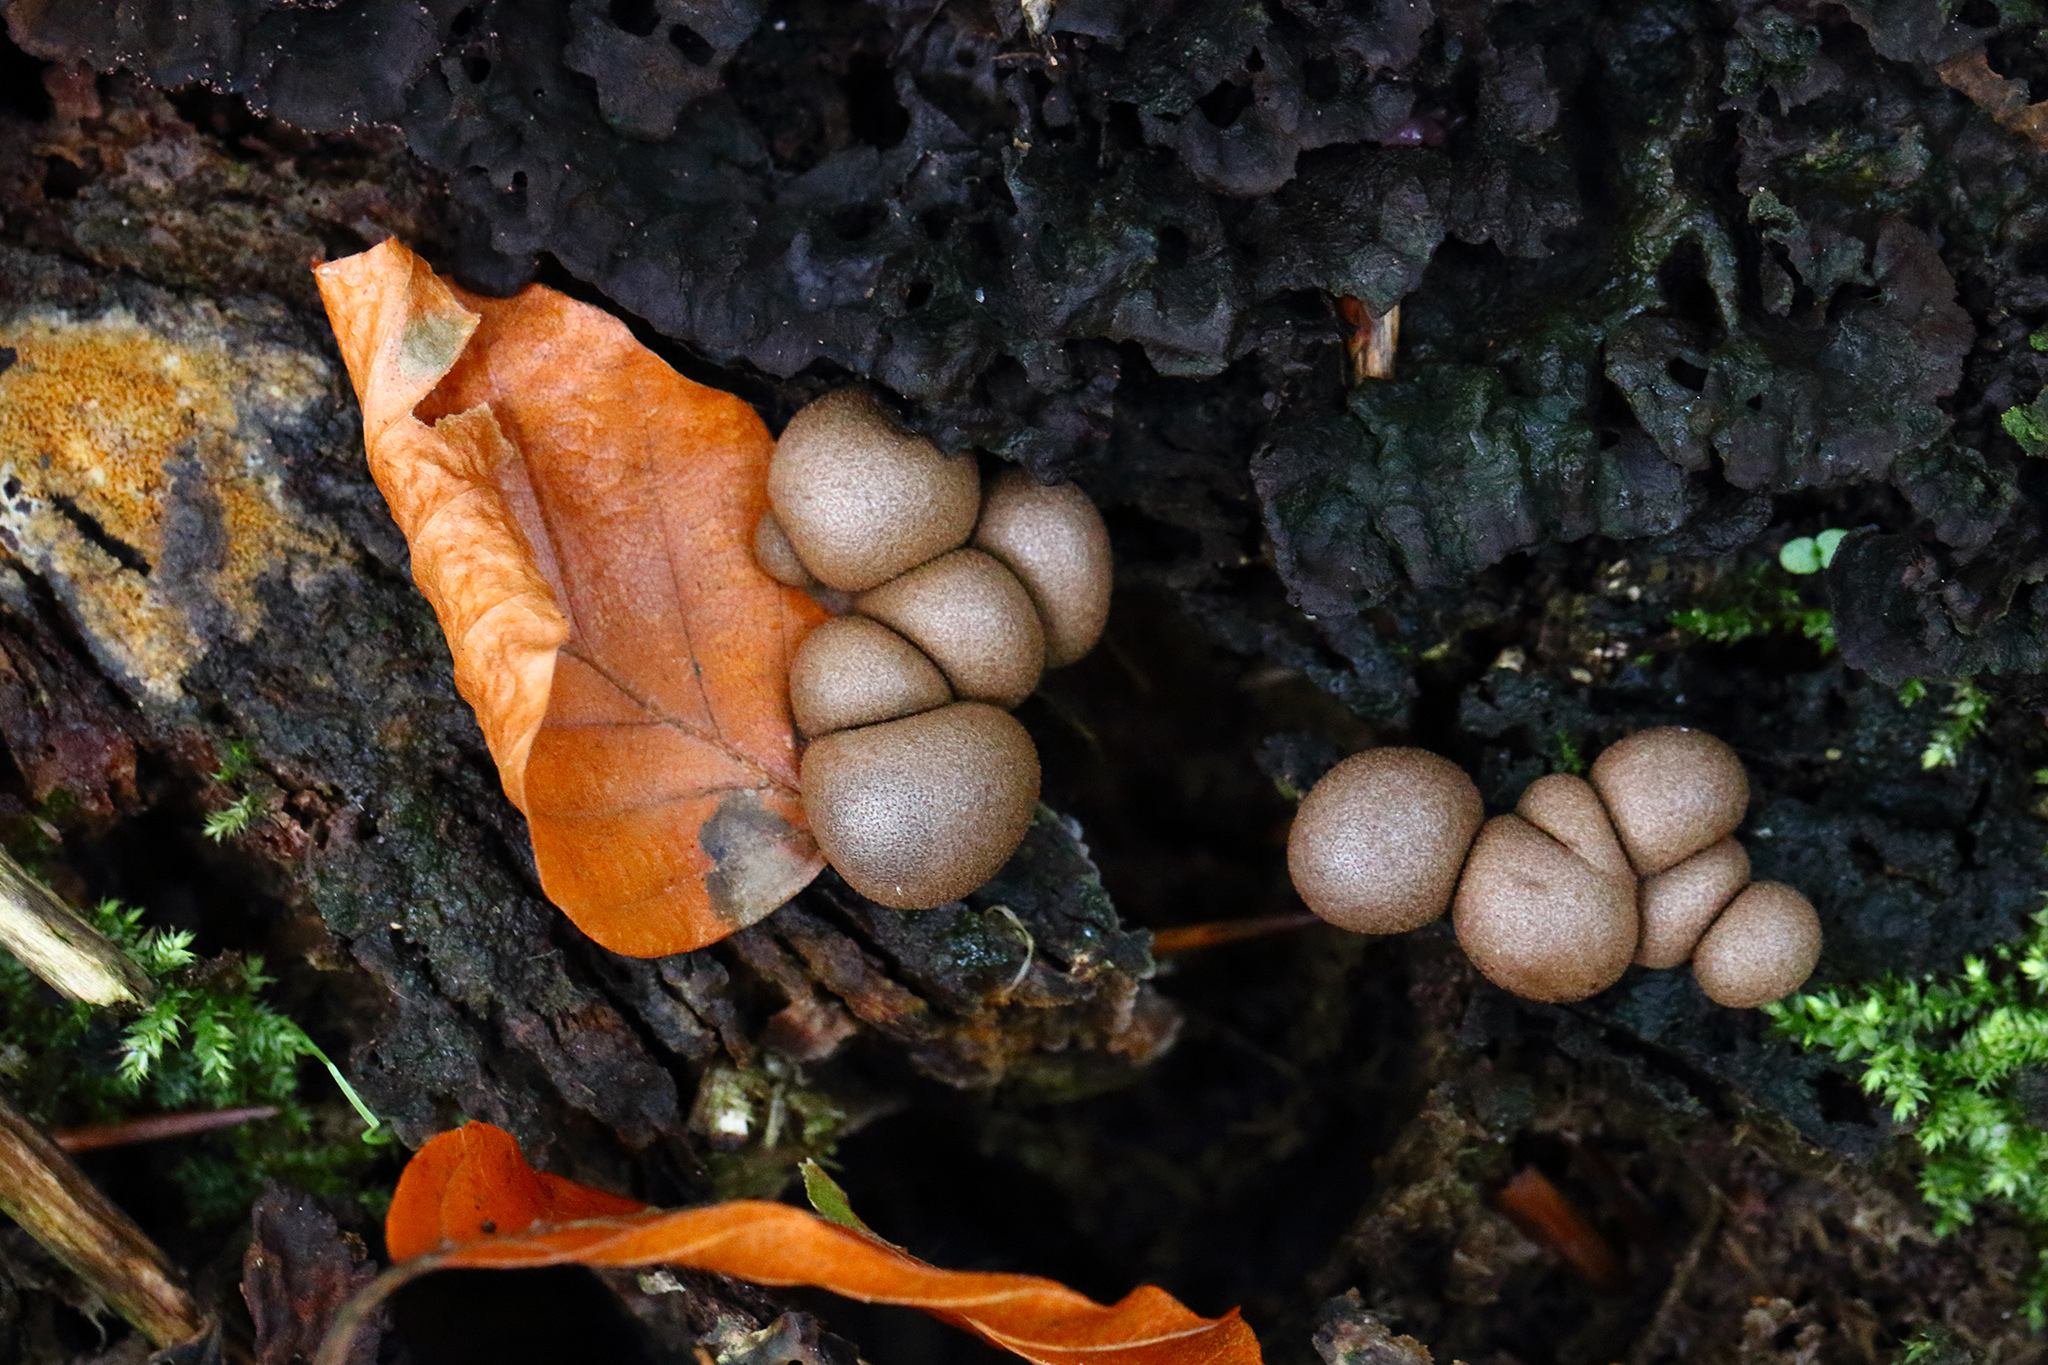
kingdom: Protozoa
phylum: Mycetozoa
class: Myxomycetes
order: Cribrariales
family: Tubiferaceae
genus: Lycogala
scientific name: Lycogala epidendrum
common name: Wolf's milk
